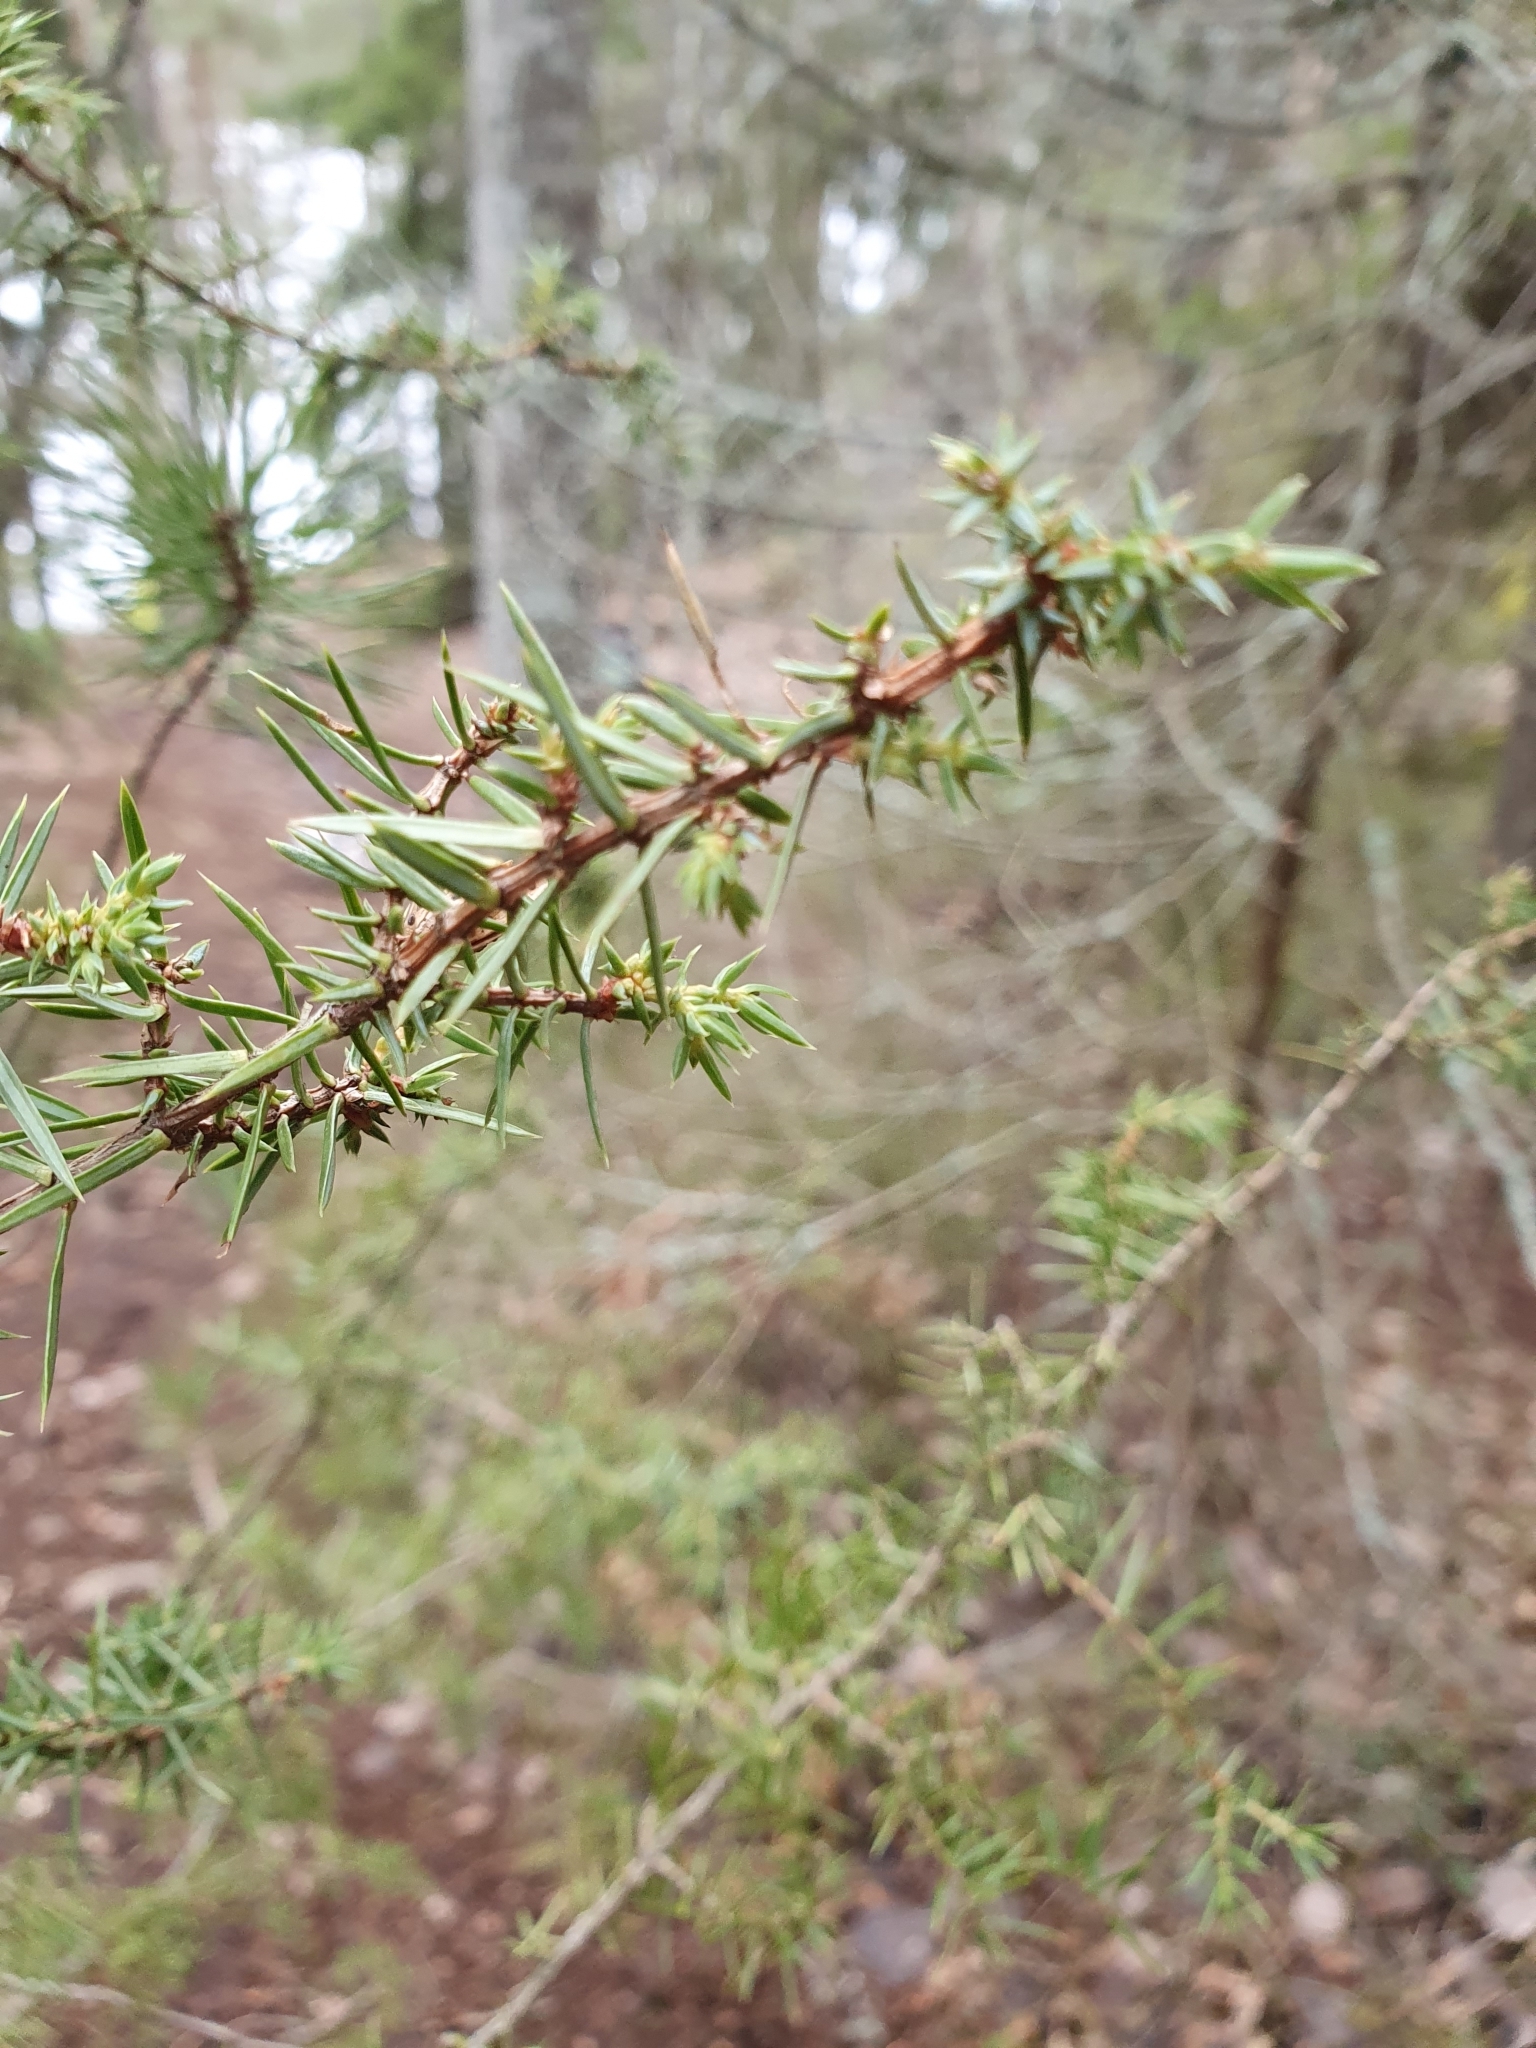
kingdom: Plantae
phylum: Tracheophyta
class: Pinopsida
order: Pinales
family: Cupressaceae
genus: Juniperus
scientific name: Juniperus communis
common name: Common juniper
